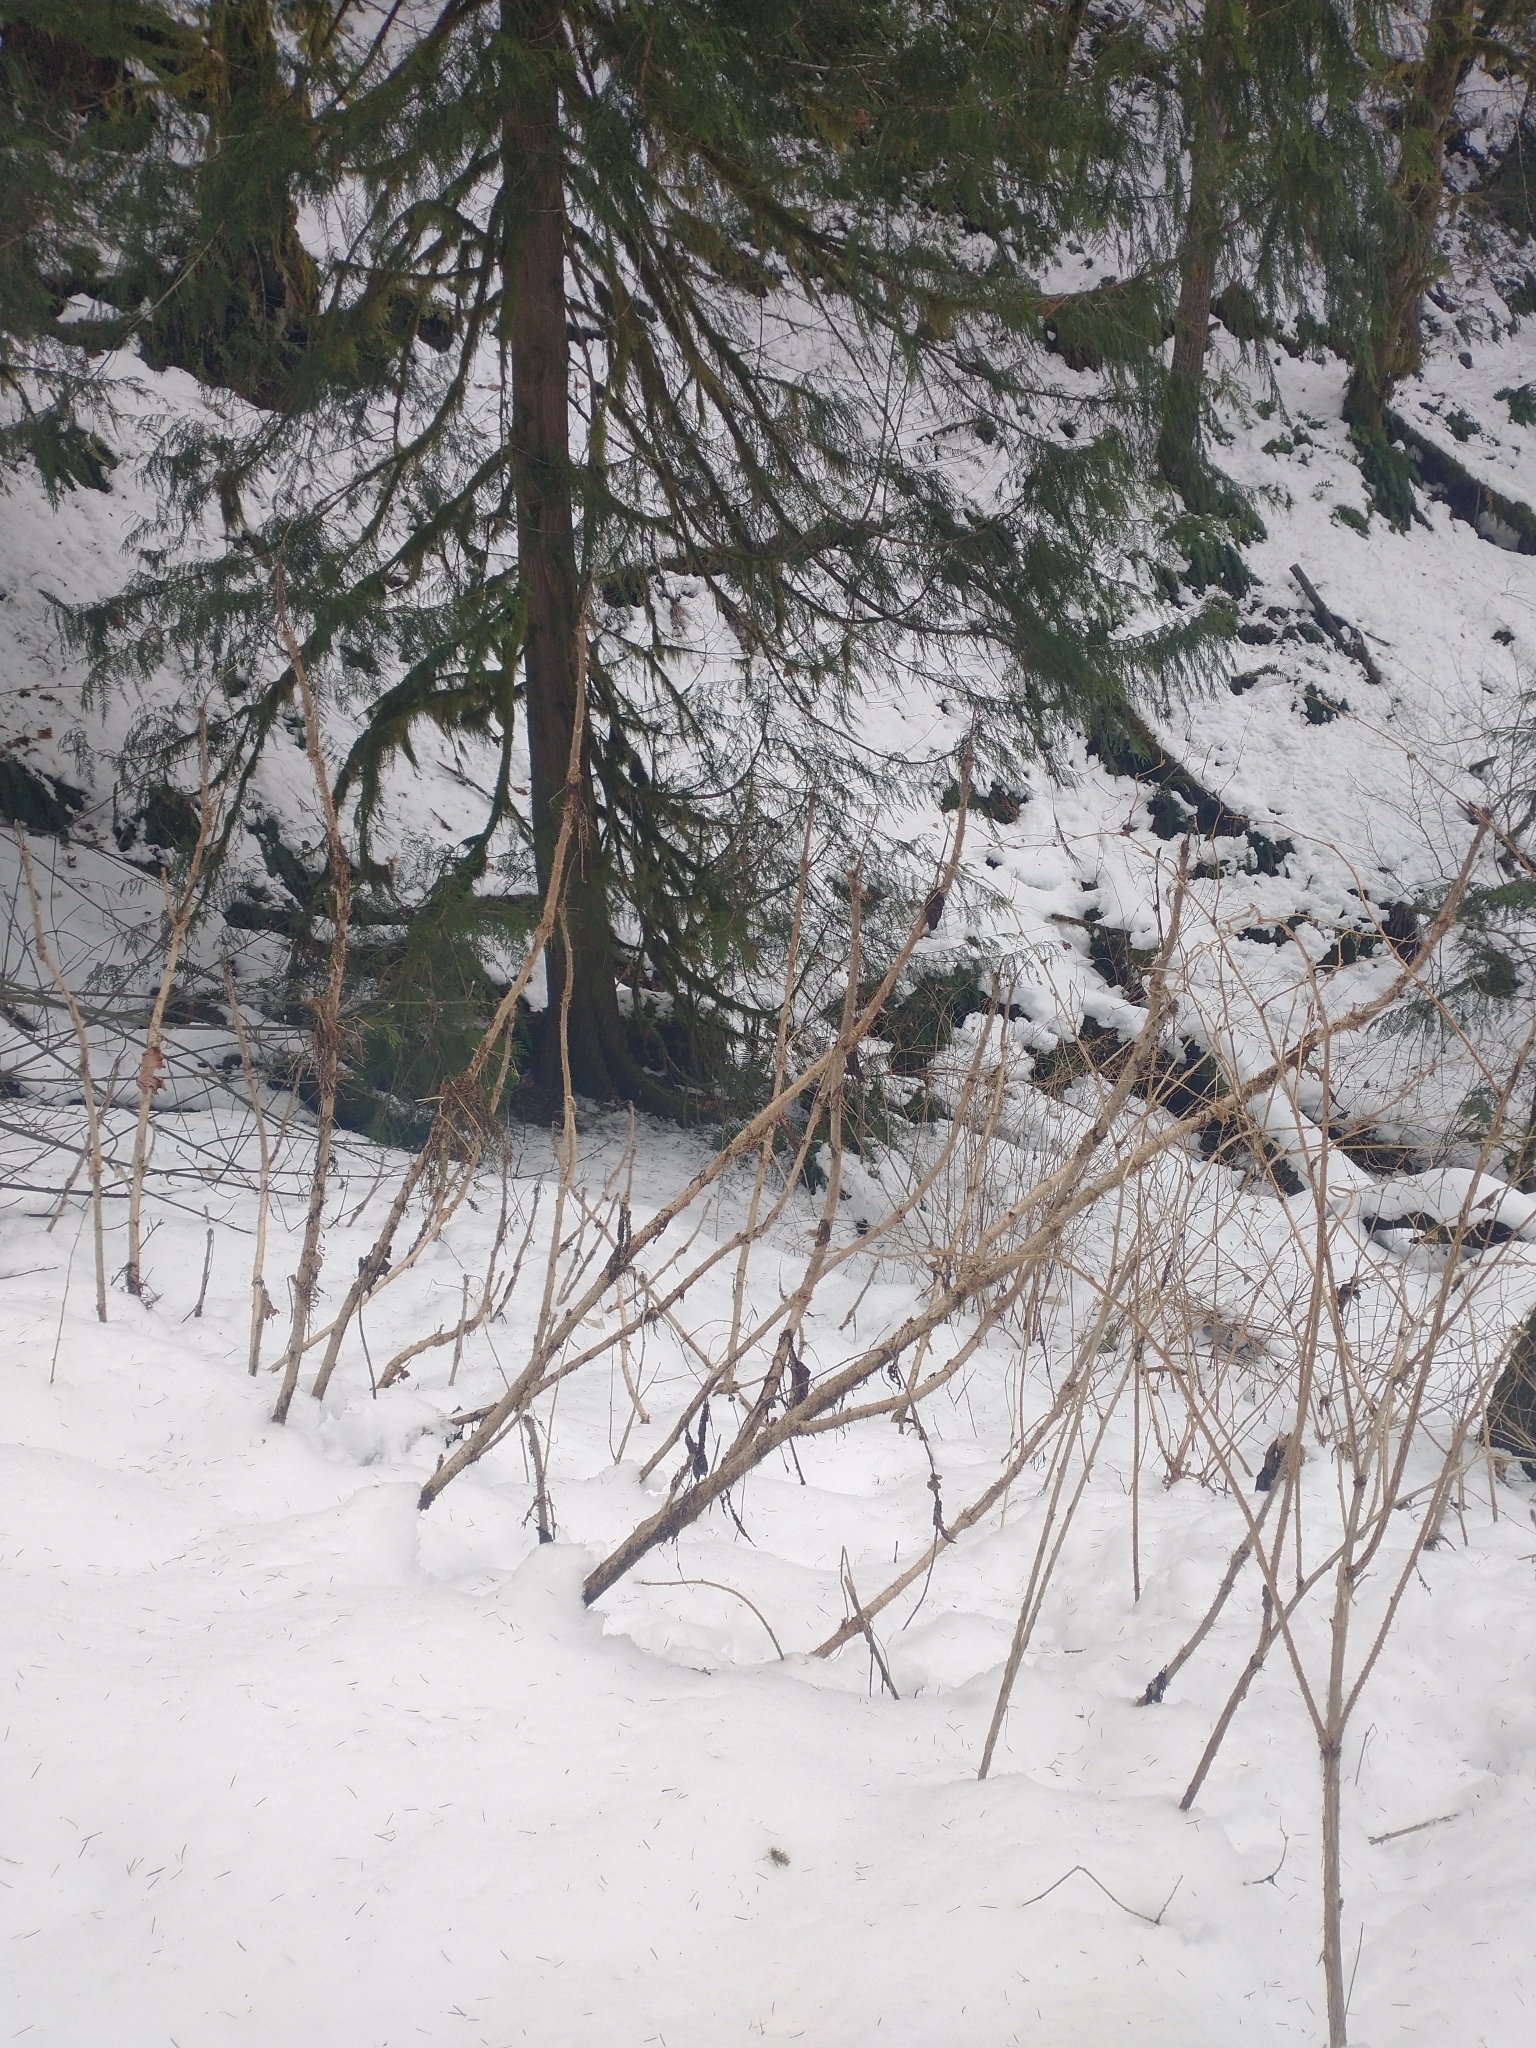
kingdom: Plantae
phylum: Tracheophyta
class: Pinopsida
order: Pinales
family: Cupressaceae
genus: Thuja
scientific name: Thuja plicata
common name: Western red-cedar
